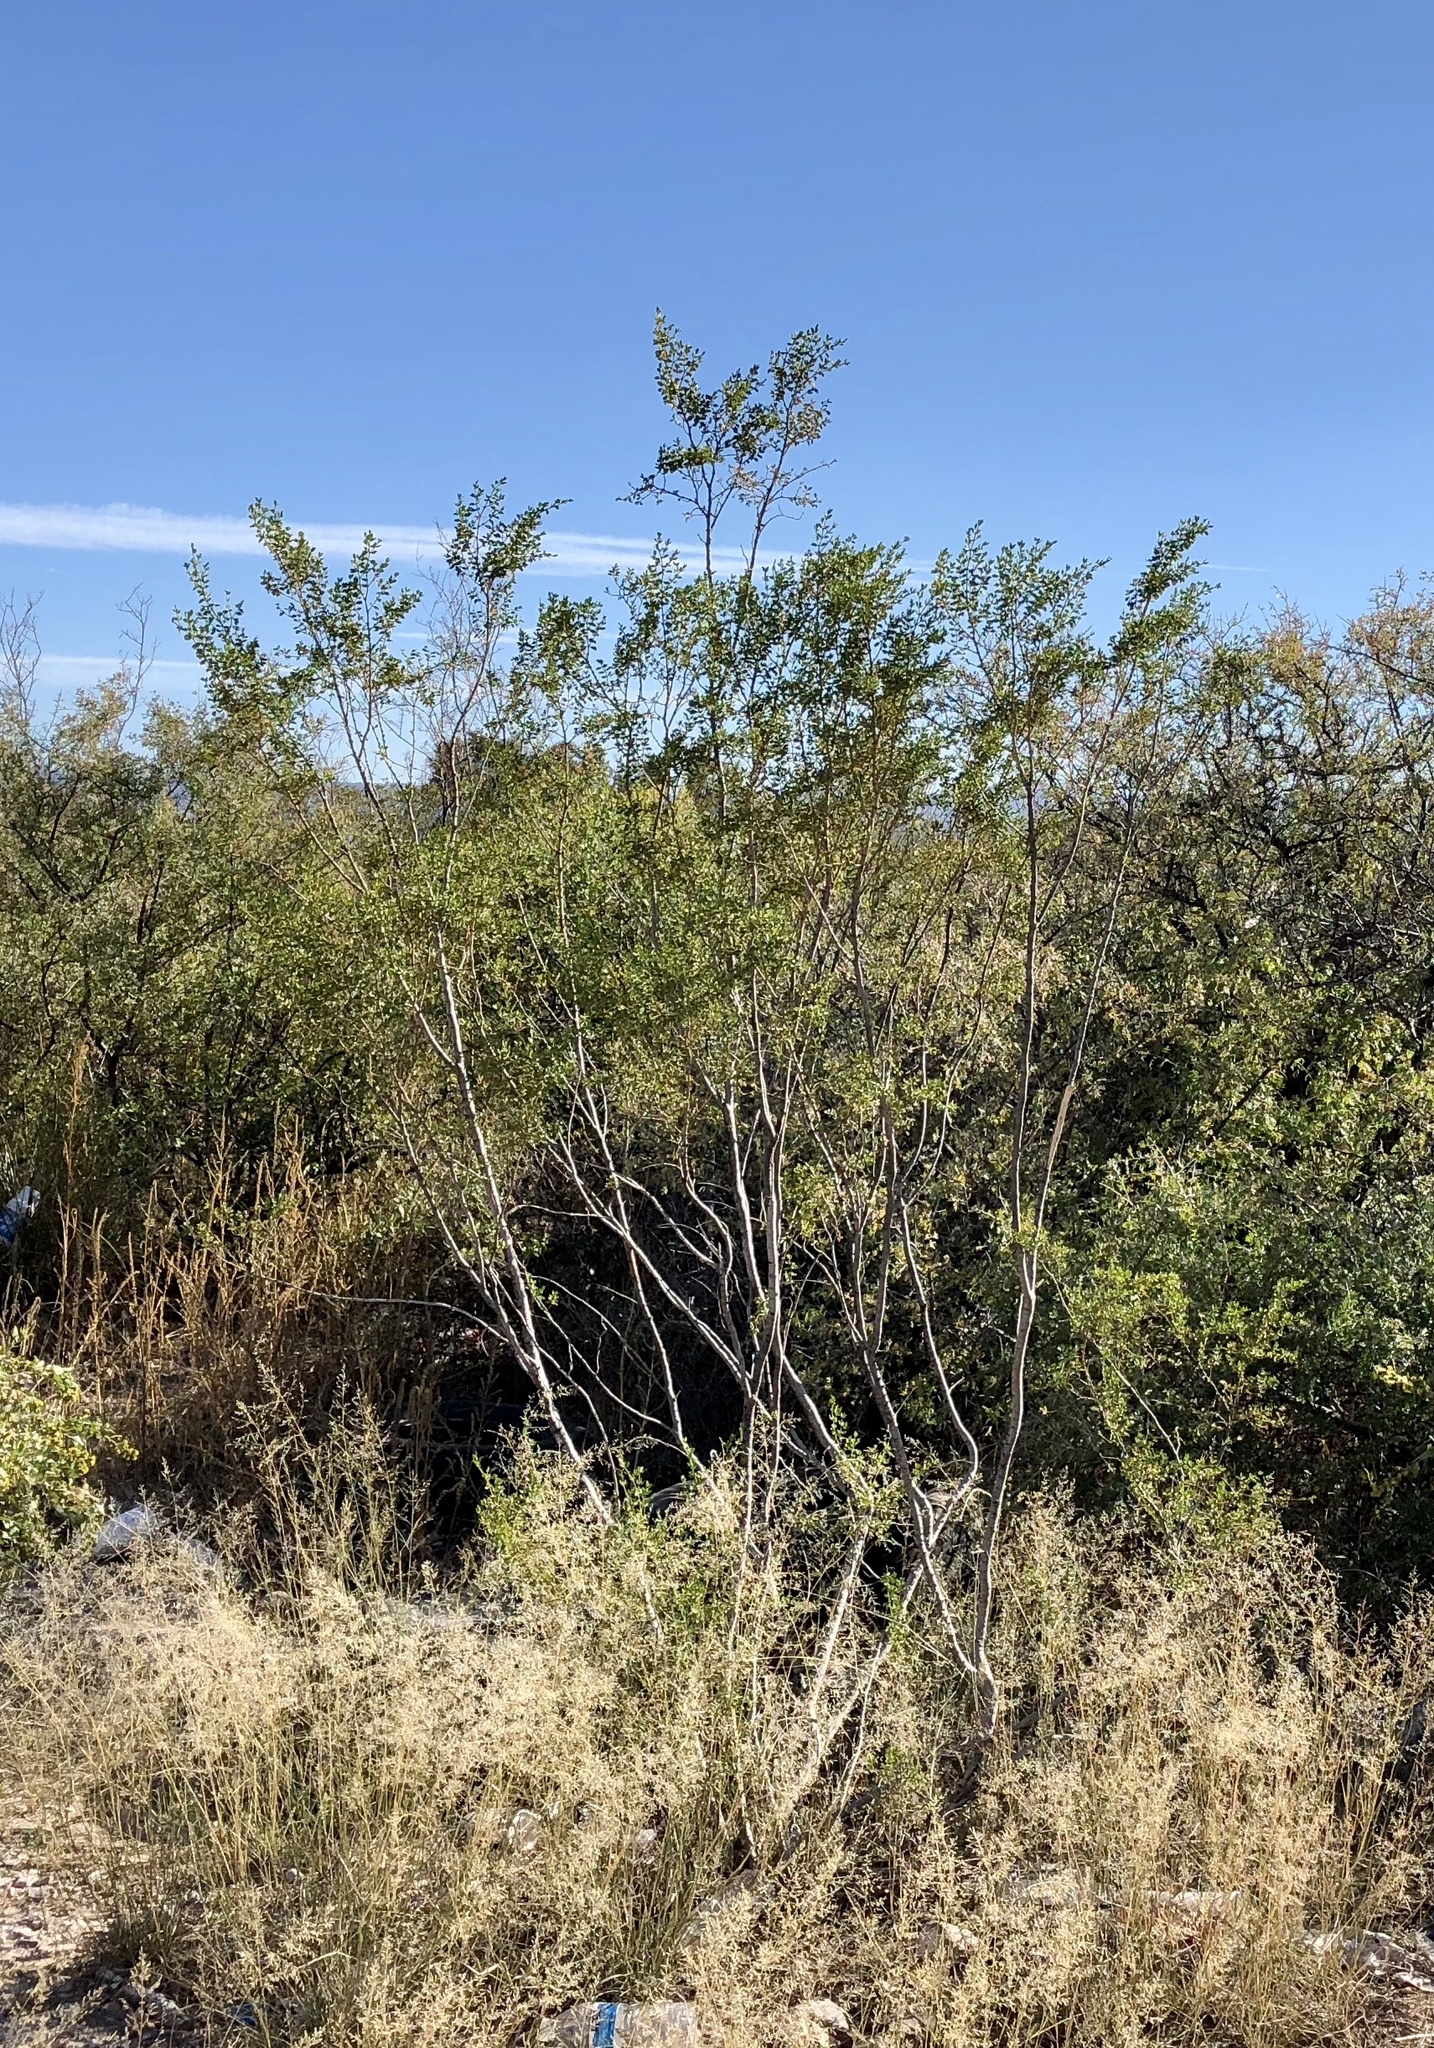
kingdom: Plantae
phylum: Tracheophyta
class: Magnoliopsida
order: Zygophyllales
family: Zygophyllaceae
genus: Larrea
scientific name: Larrea tridentata
